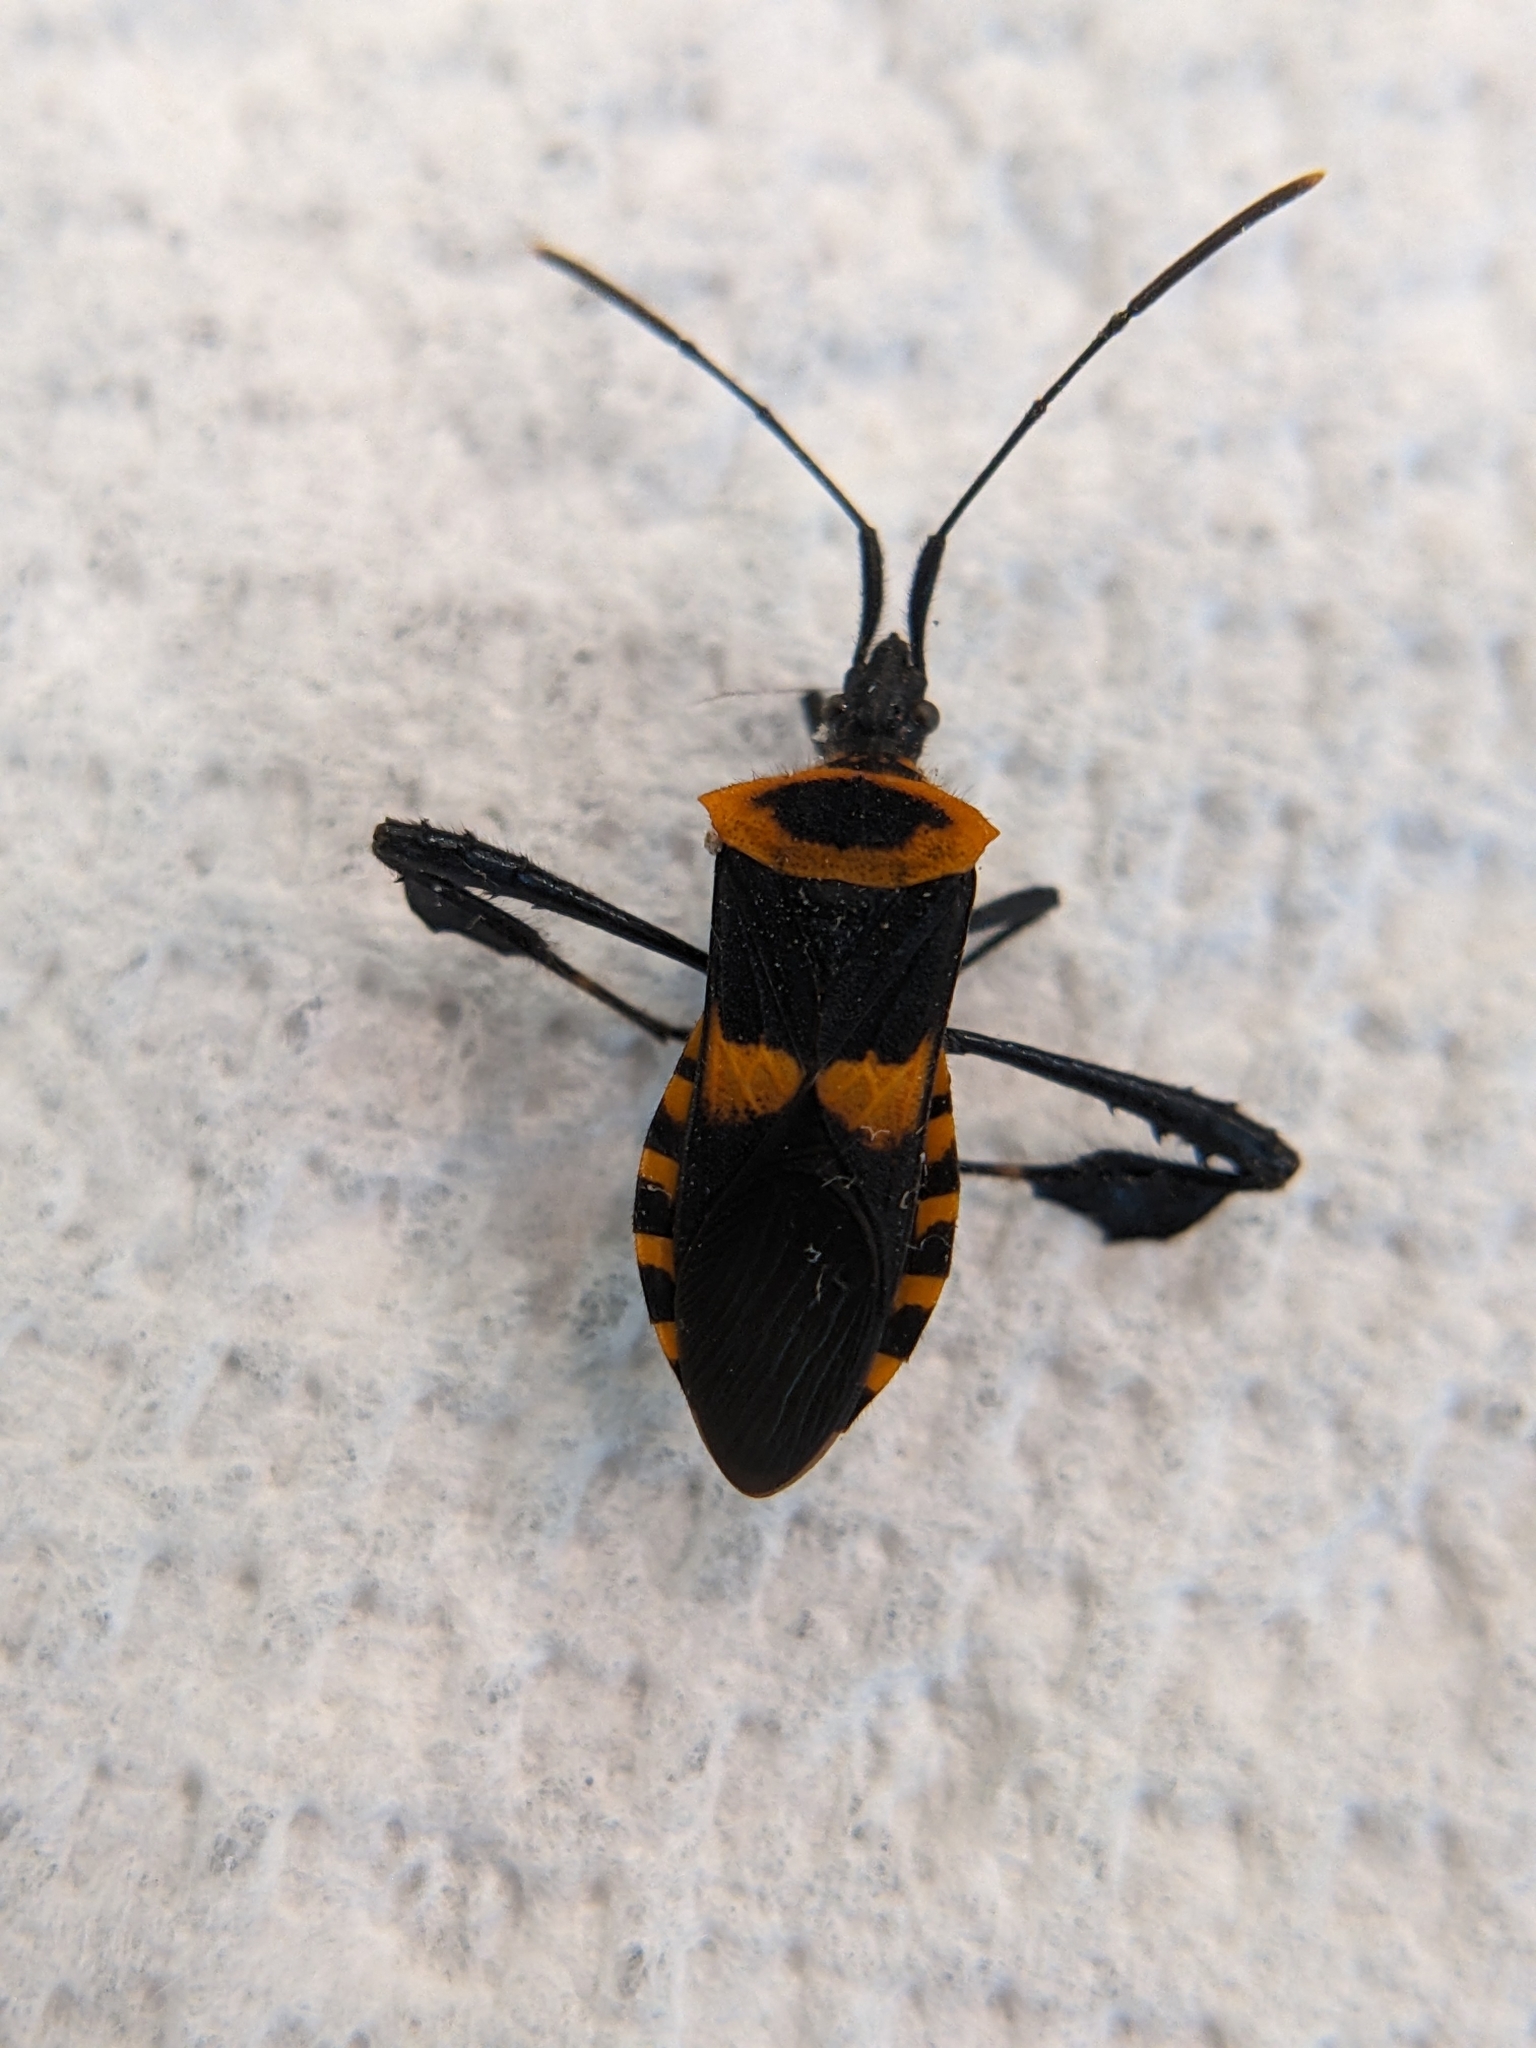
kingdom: Animalia
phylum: Arthropoda
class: Insecta
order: Hemiptera
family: Coreidae
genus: Leptoglossus
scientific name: Leptoglossus ashmeadi
